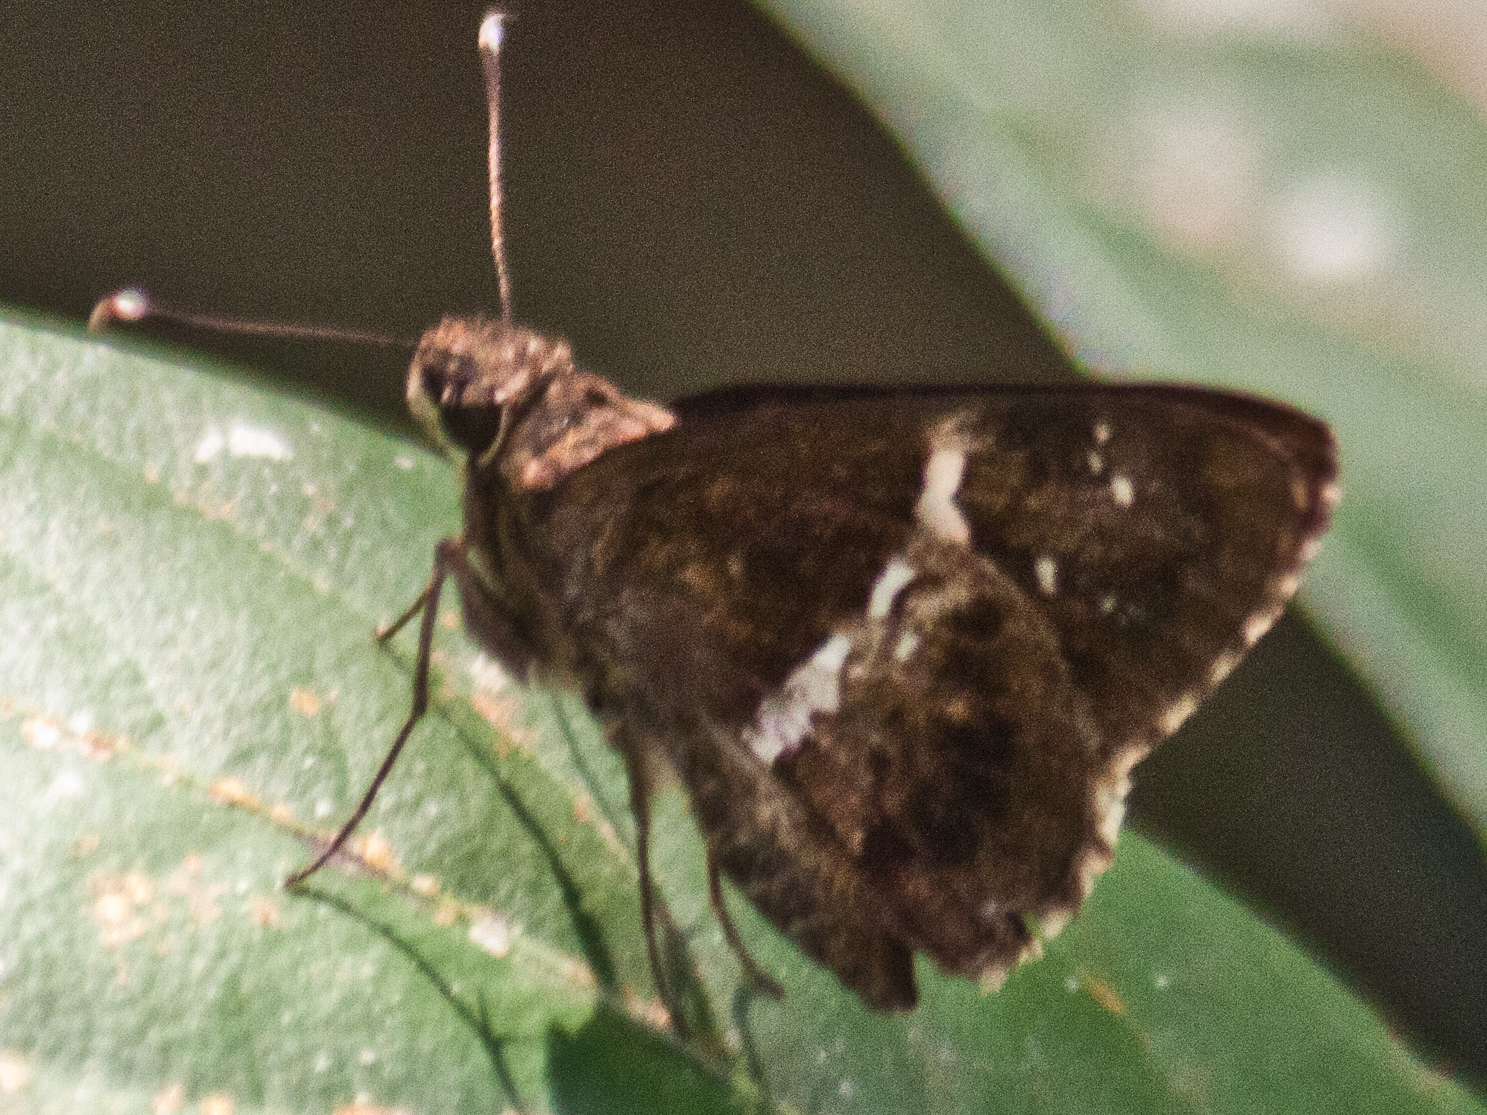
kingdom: Animalia
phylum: Arthropoda
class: Insecta
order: Lepidoptera
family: Hesperiidae
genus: Hyarotis
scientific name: Hyarotis adrastus
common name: Tree flitter
